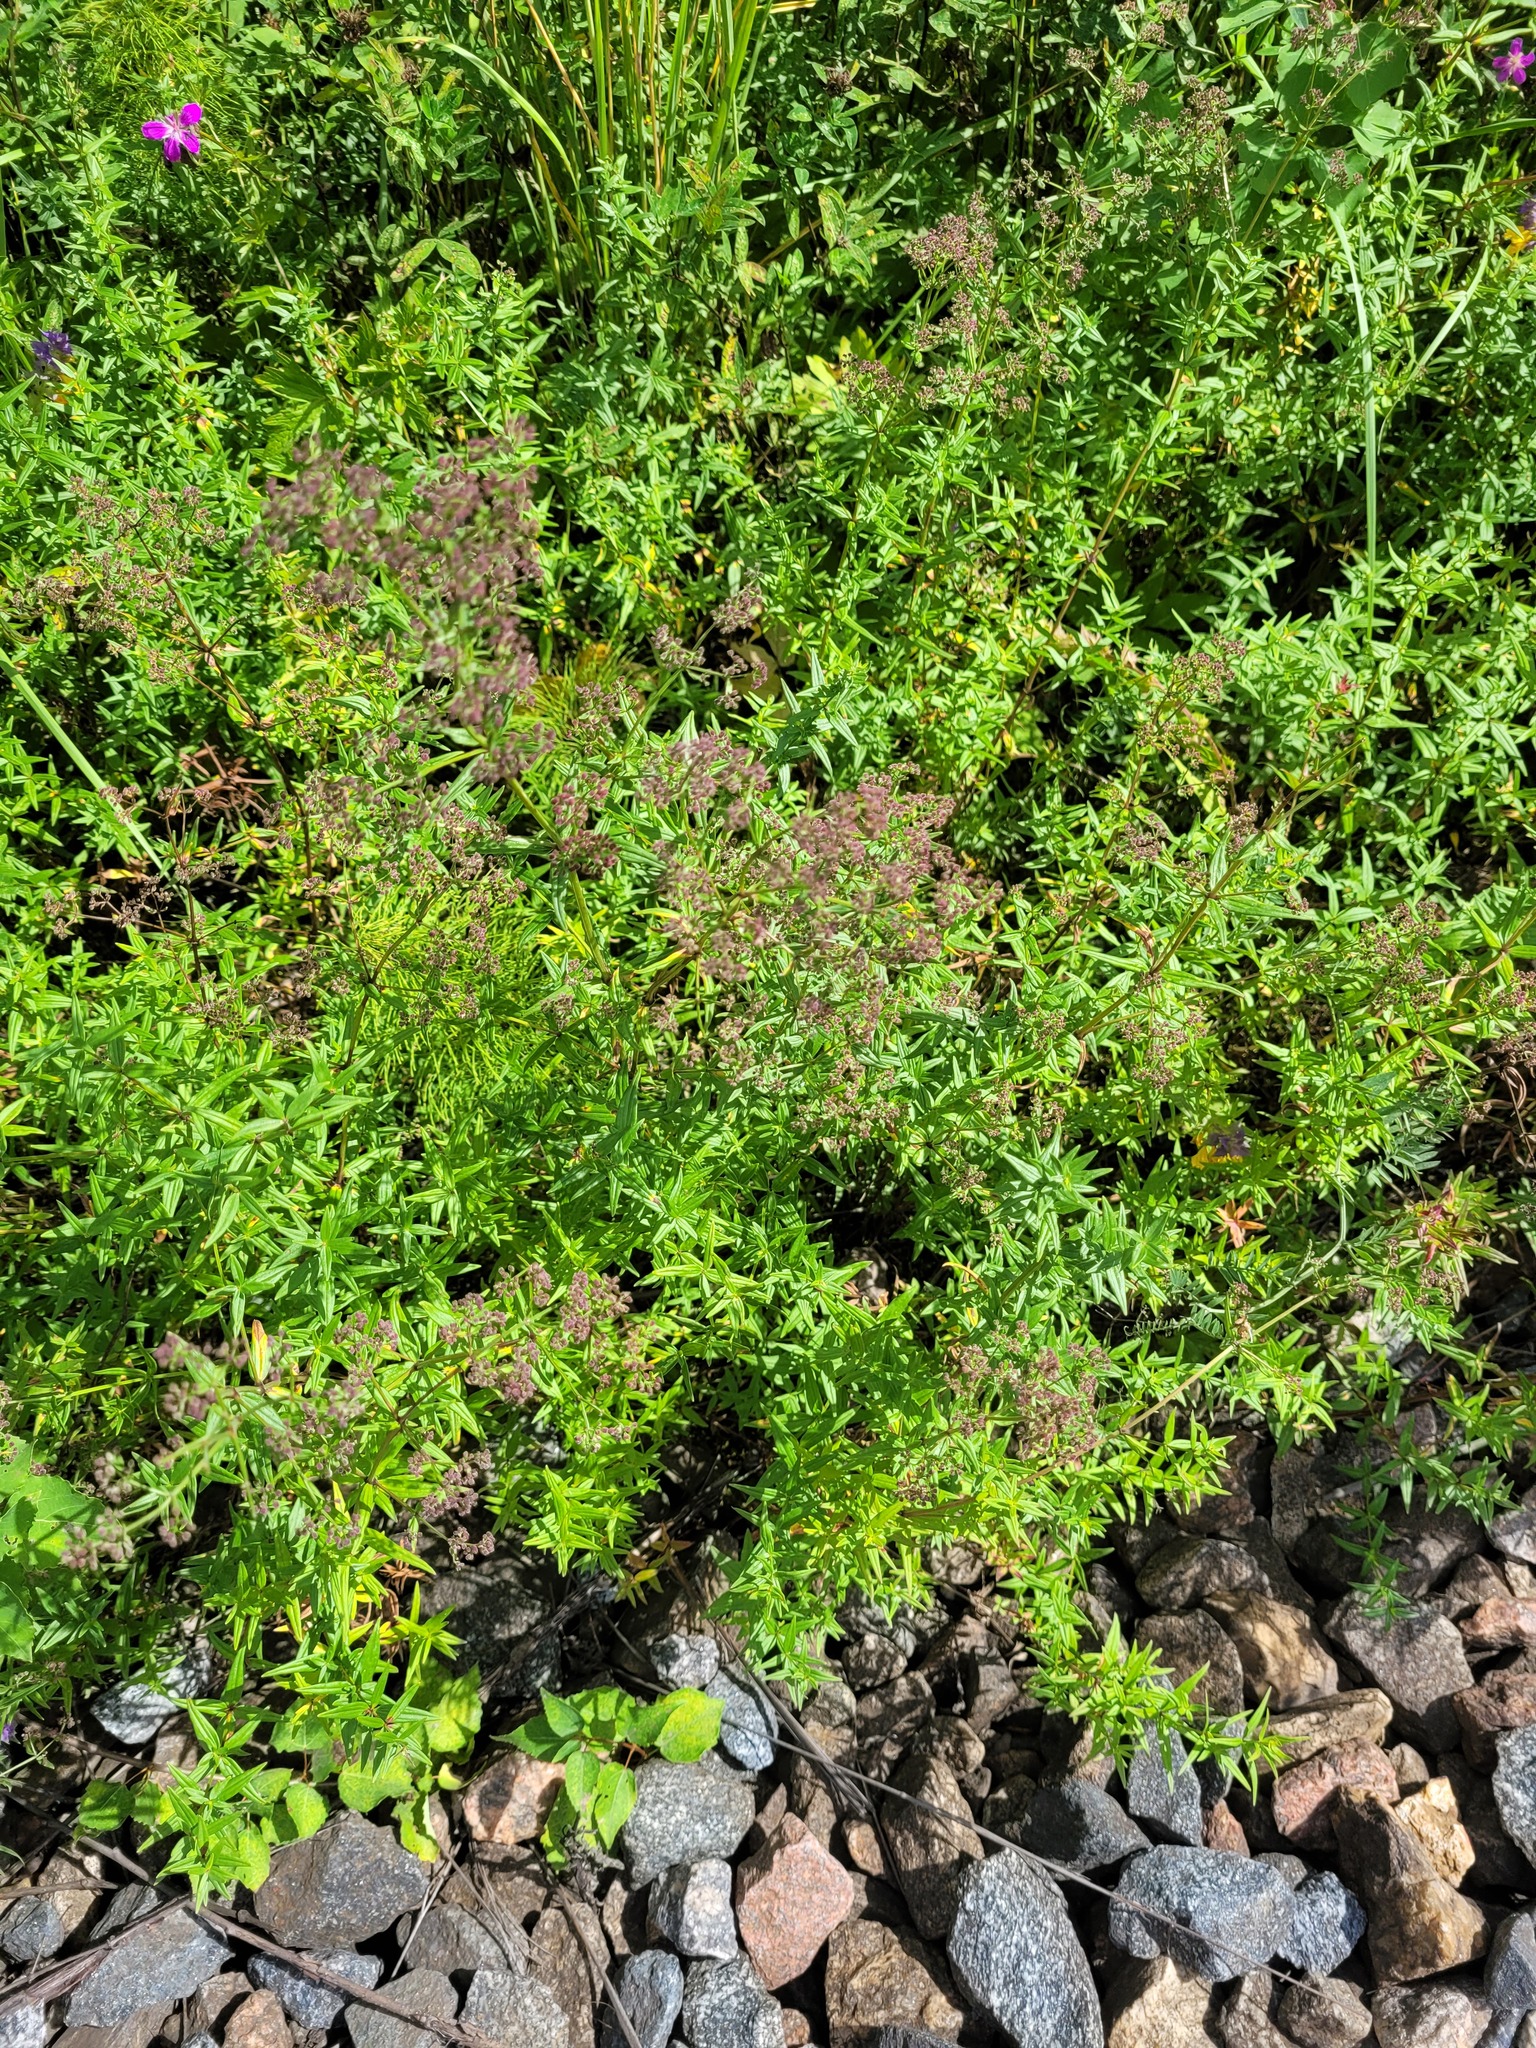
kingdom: Plantae
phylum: Tracheophyta
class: Magnoliopsida
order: Gentianales
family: Rubiaceae
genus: Galium
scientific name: Galium boreale
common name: Northern bedstraw
